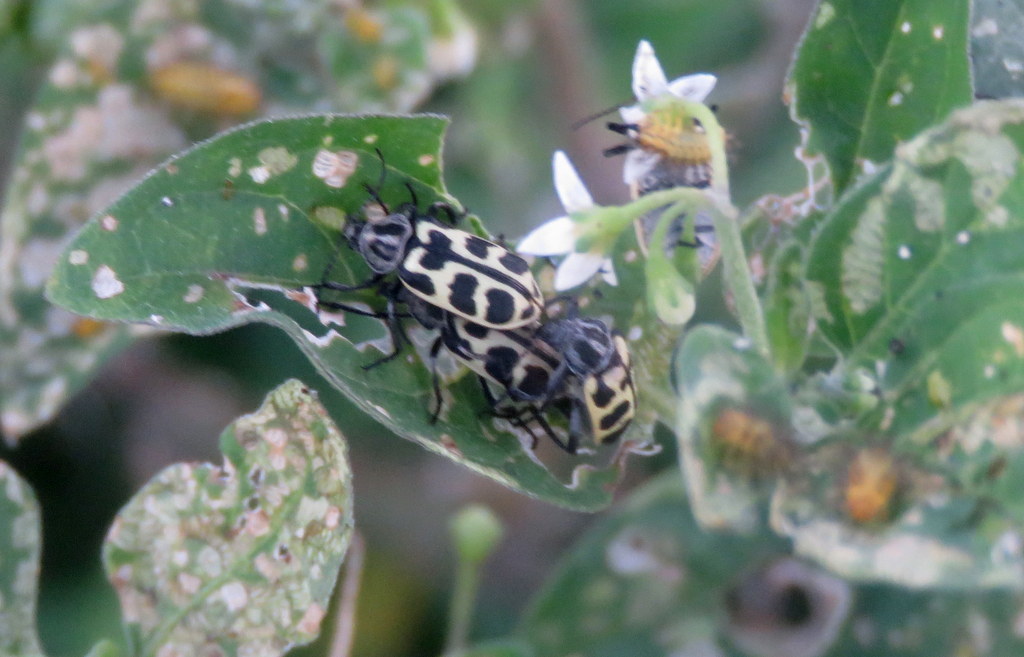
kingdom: Animalia
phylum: Arthropoda
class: Insecta
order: Coleoptera
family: Melyridae
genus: Astylus
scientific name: Astylus atromaculatus
